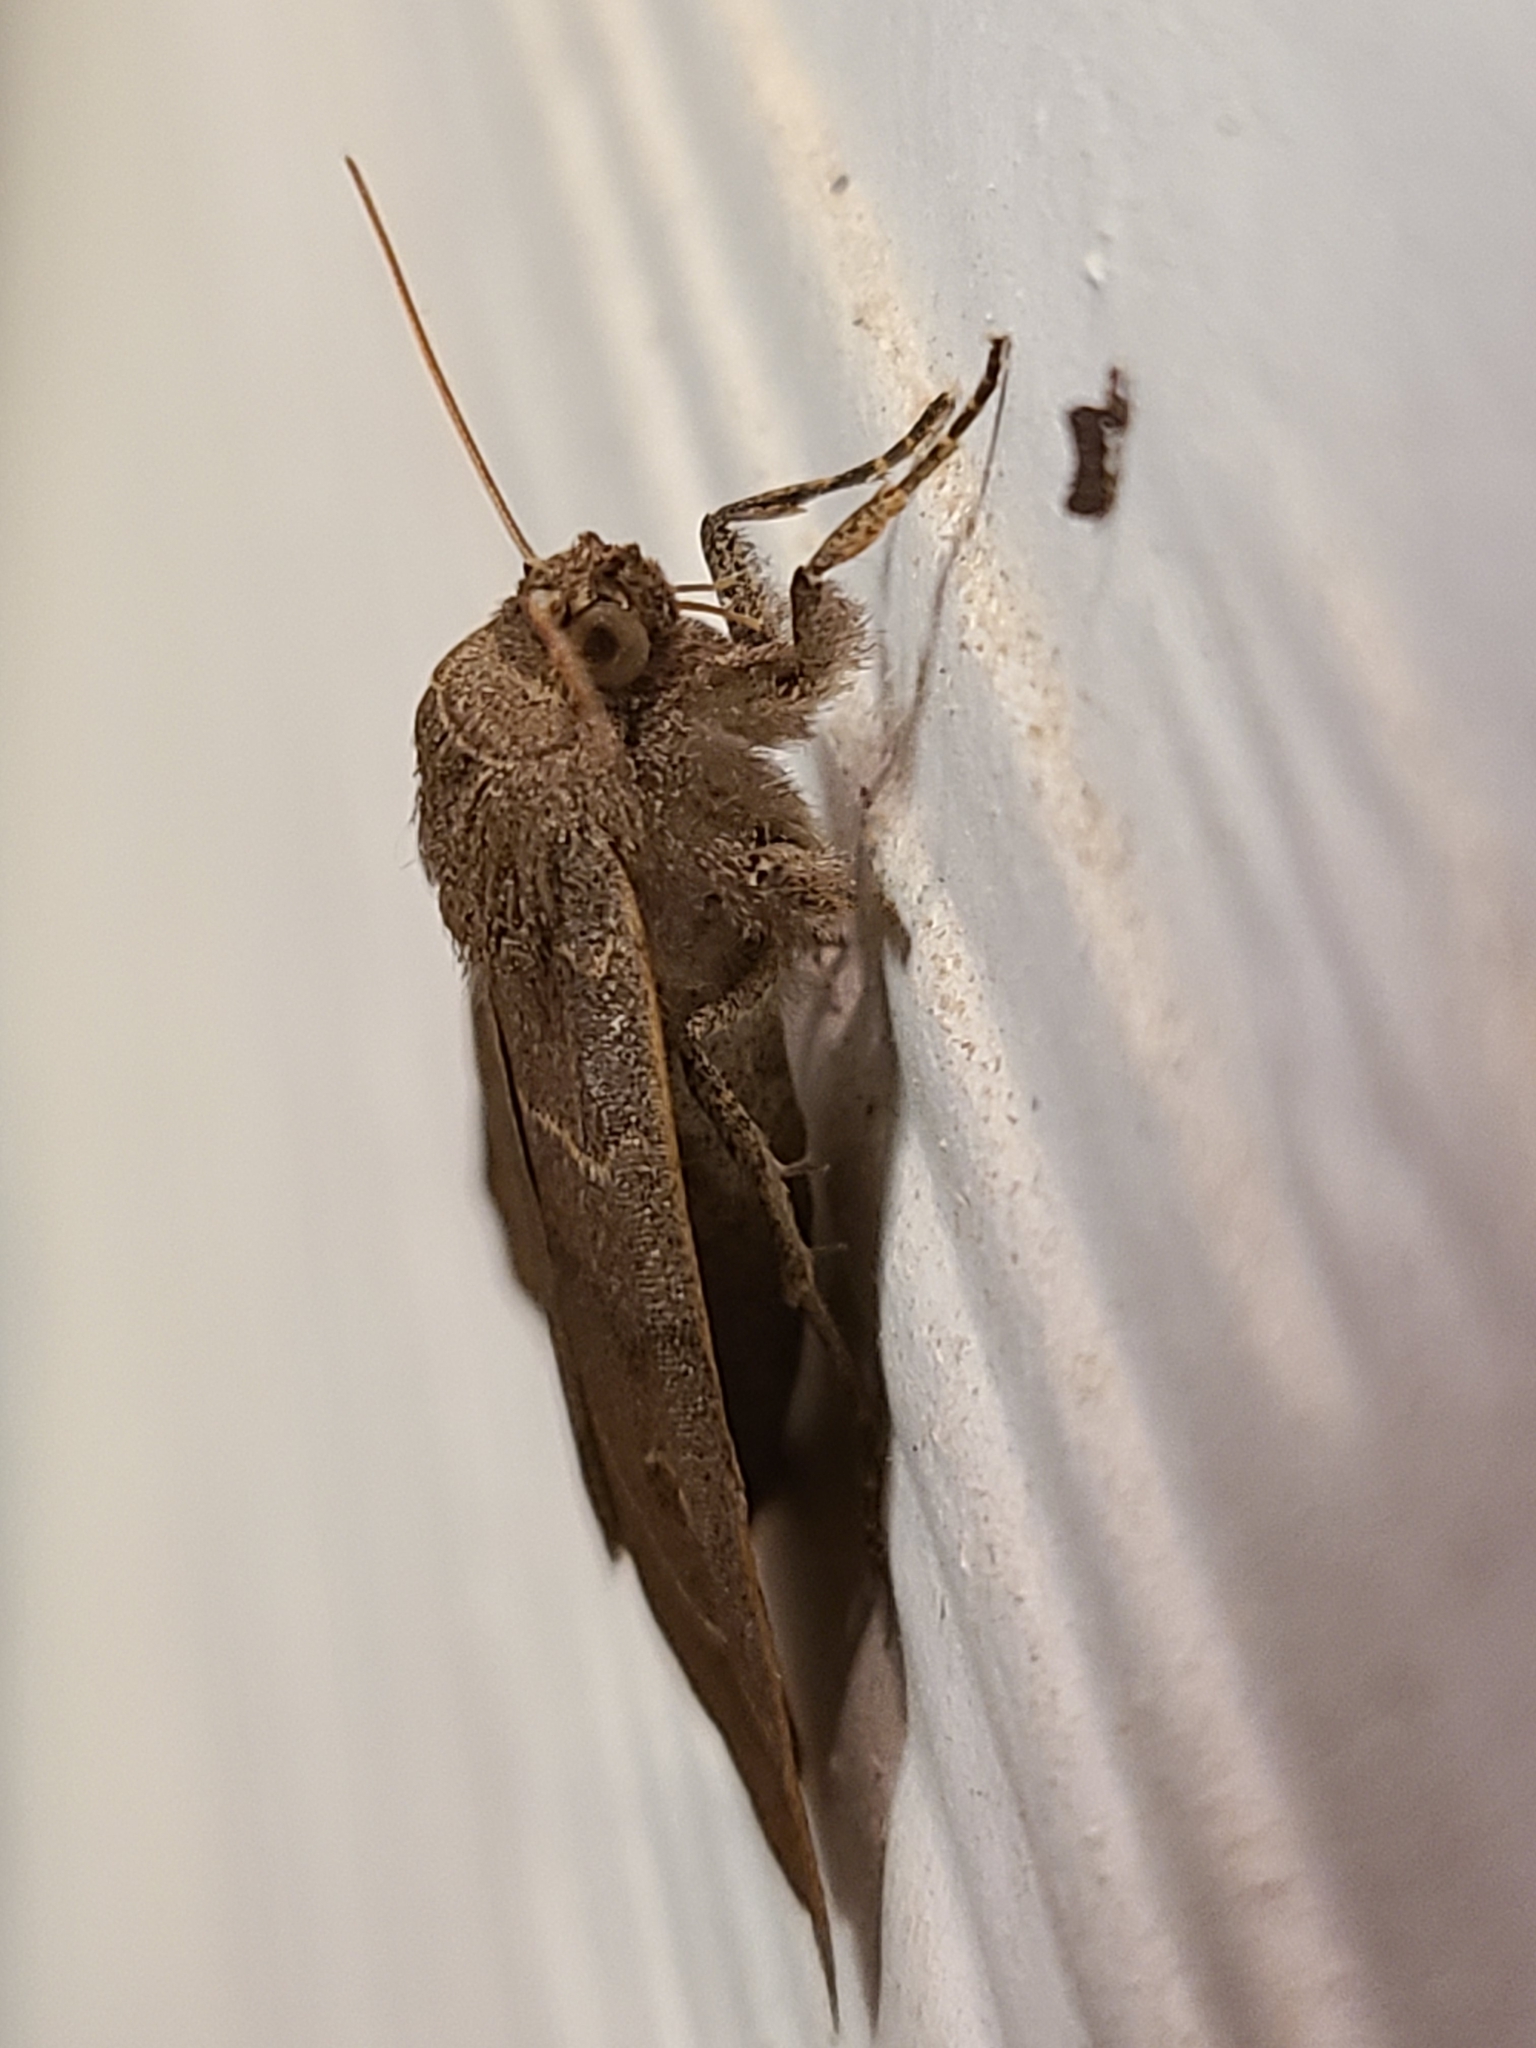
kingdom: Animalia
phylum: Arthropoda
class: Insecta
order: Lepidoptera
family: Erebidae
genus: Phoberia
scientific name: Phoberia atomaris
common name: Common oak moth
